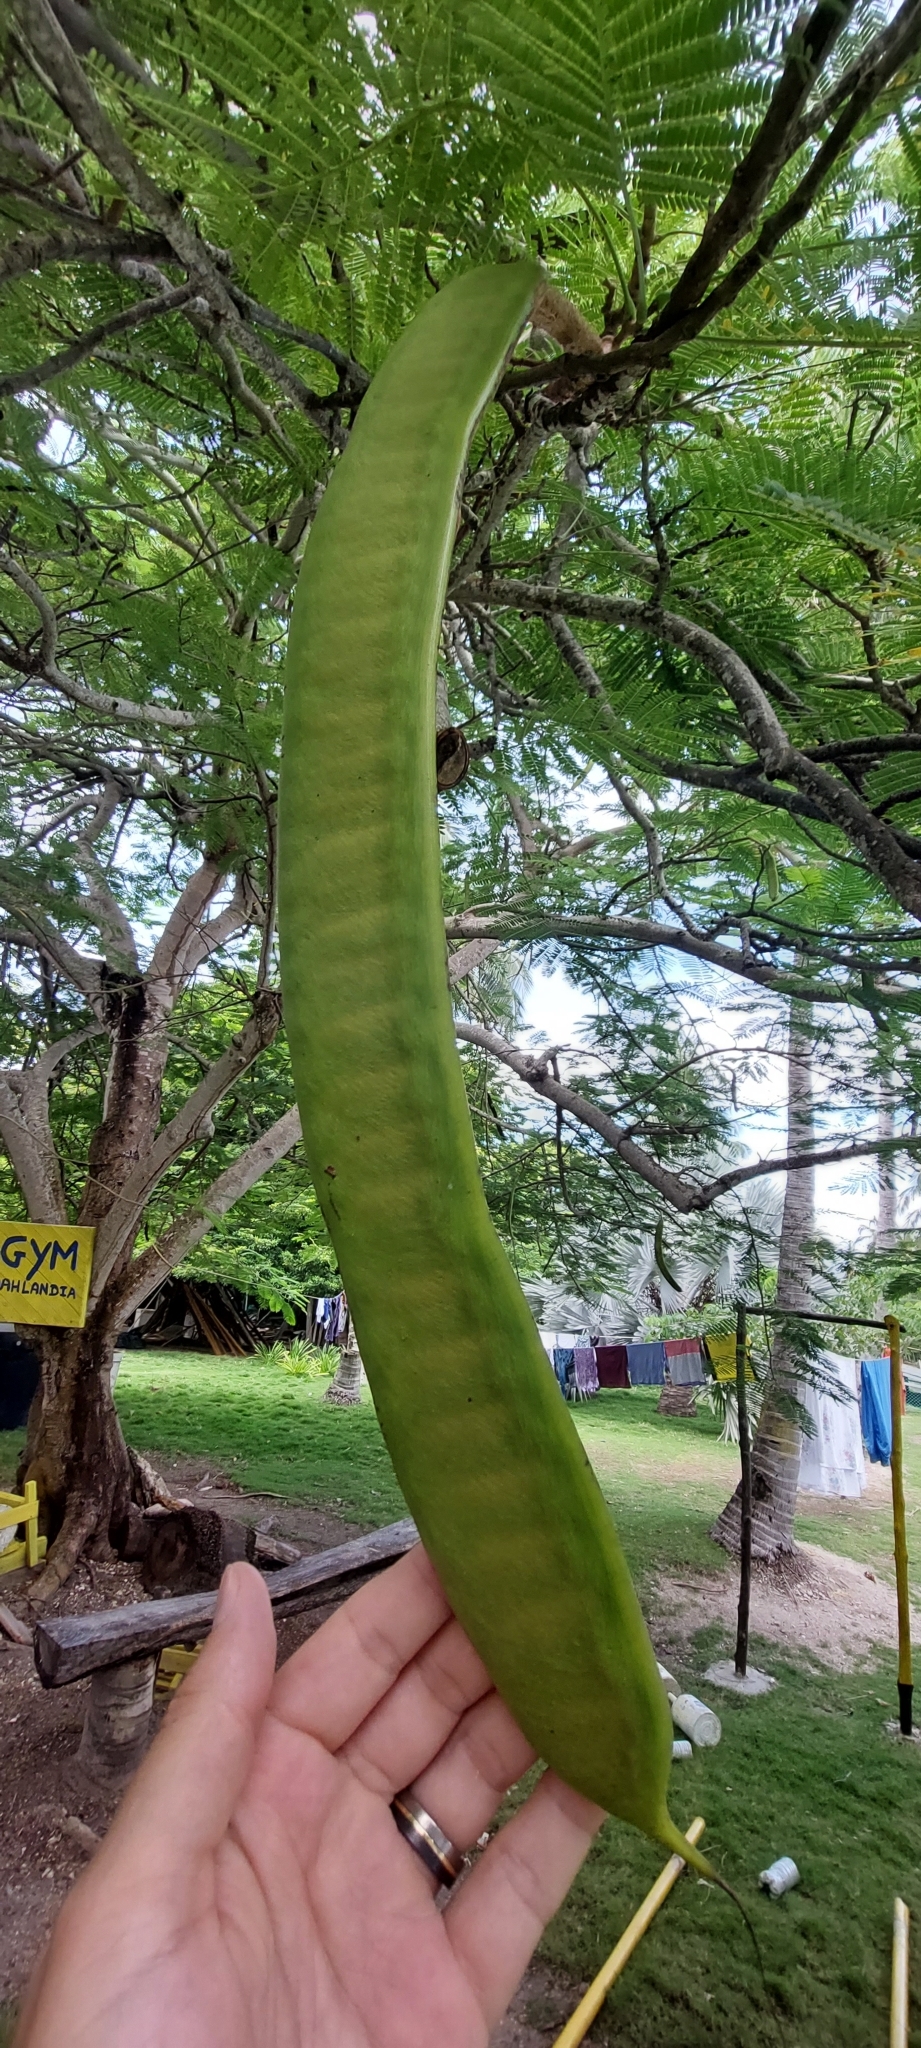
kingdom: Plantae
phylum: Tracheophyta
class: Magnoliopsida
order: Fabales
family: Fabaceae
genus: Delonix
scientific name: Delonix regia
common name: Royal poinciana
